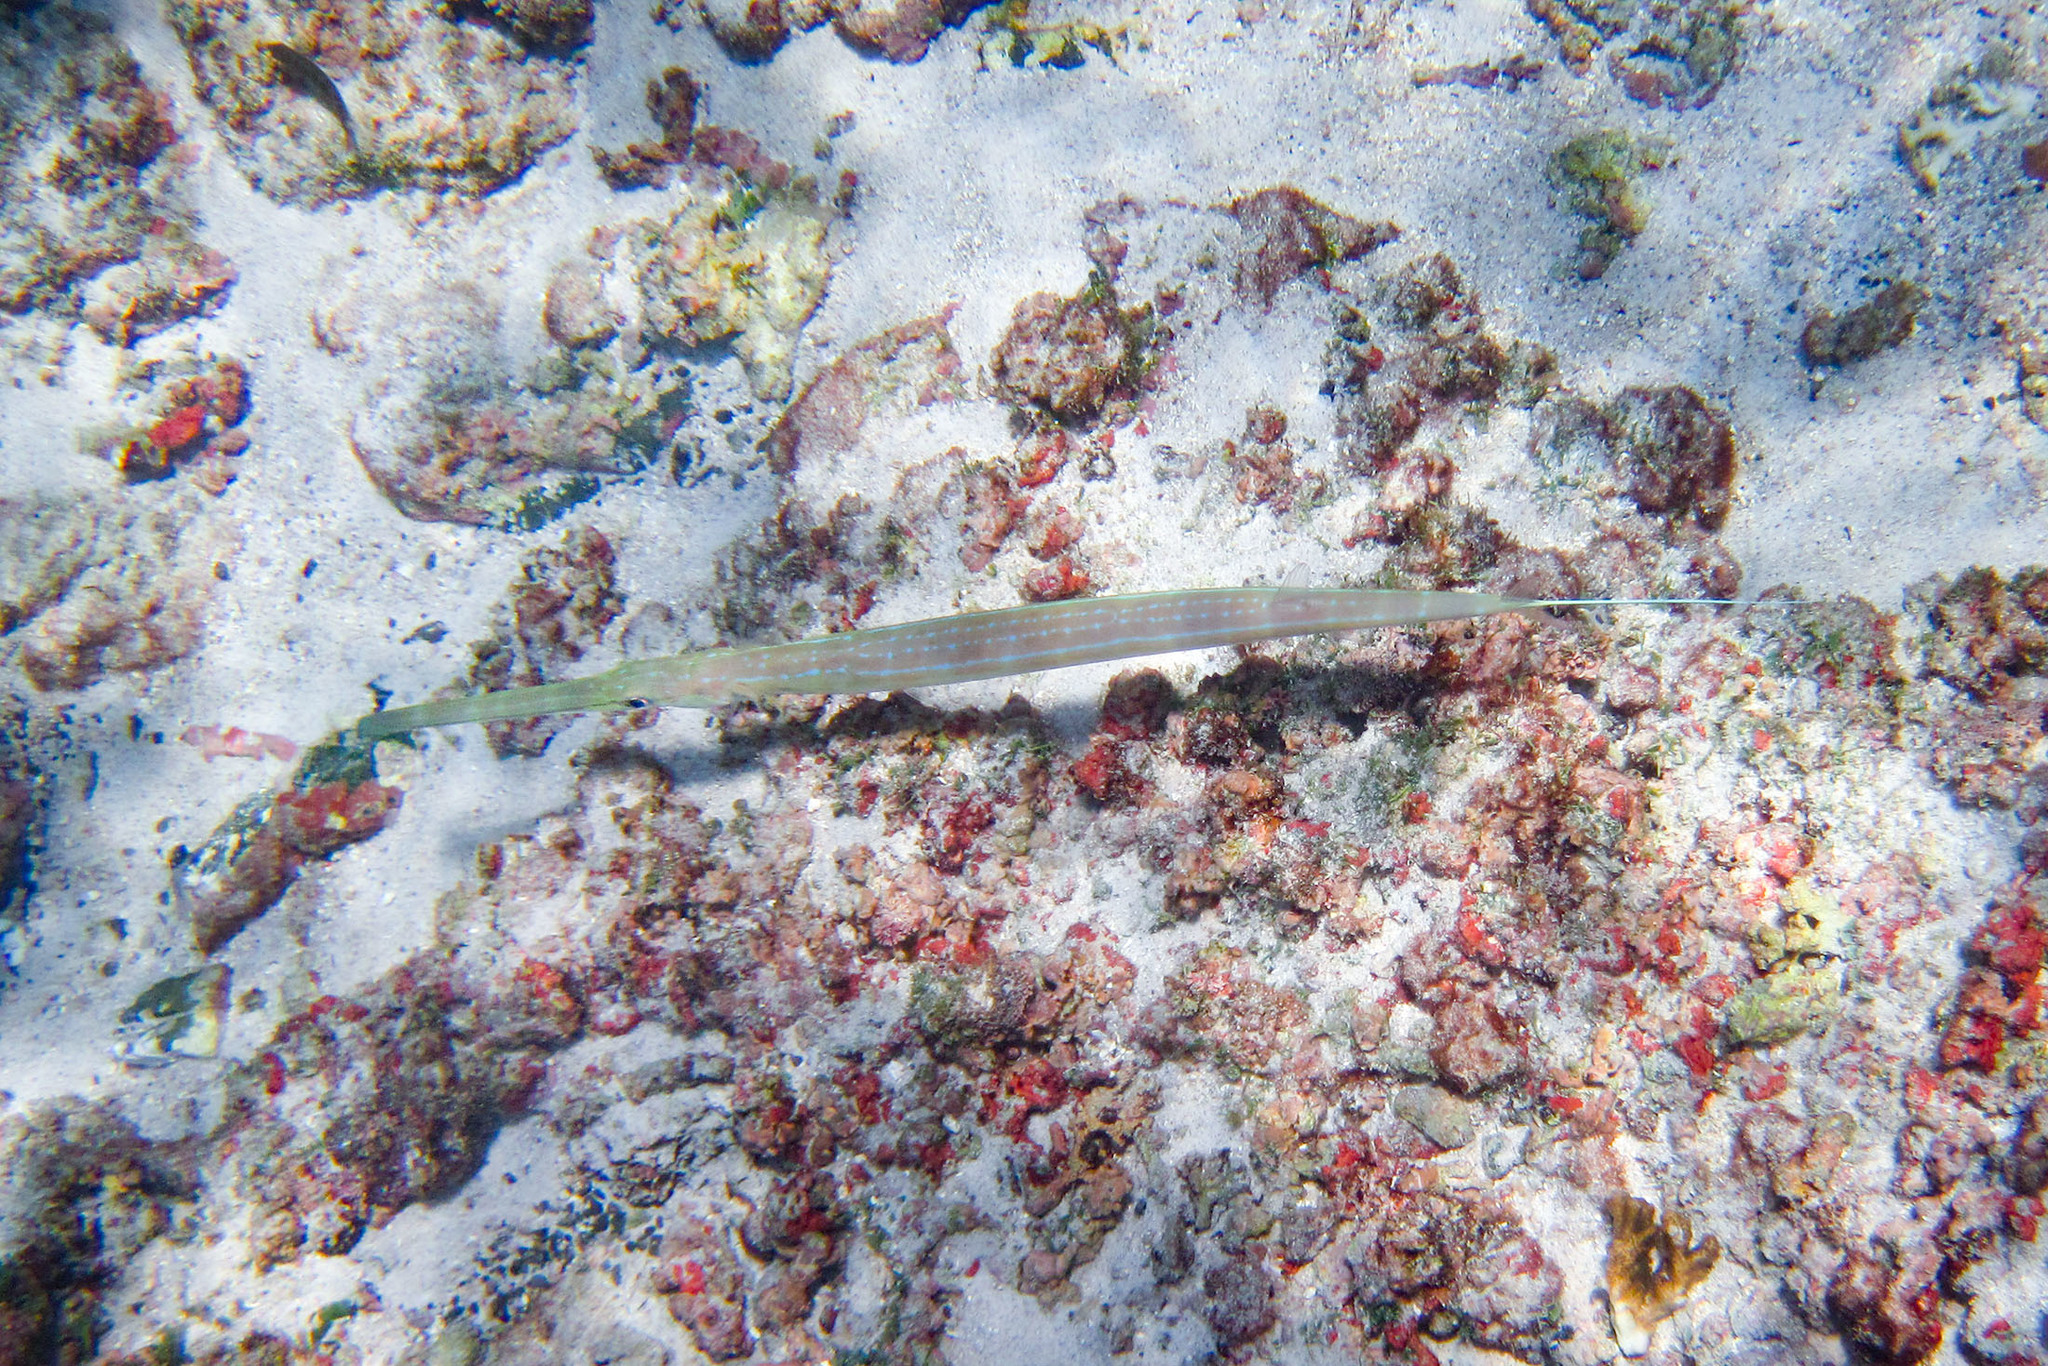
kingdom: Animalia
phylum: Chordata
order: Syngnathiformes
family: Fistulariidae
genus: Fistularia
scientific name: Fistularia commersonii
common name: Bluespotted cornetfish
